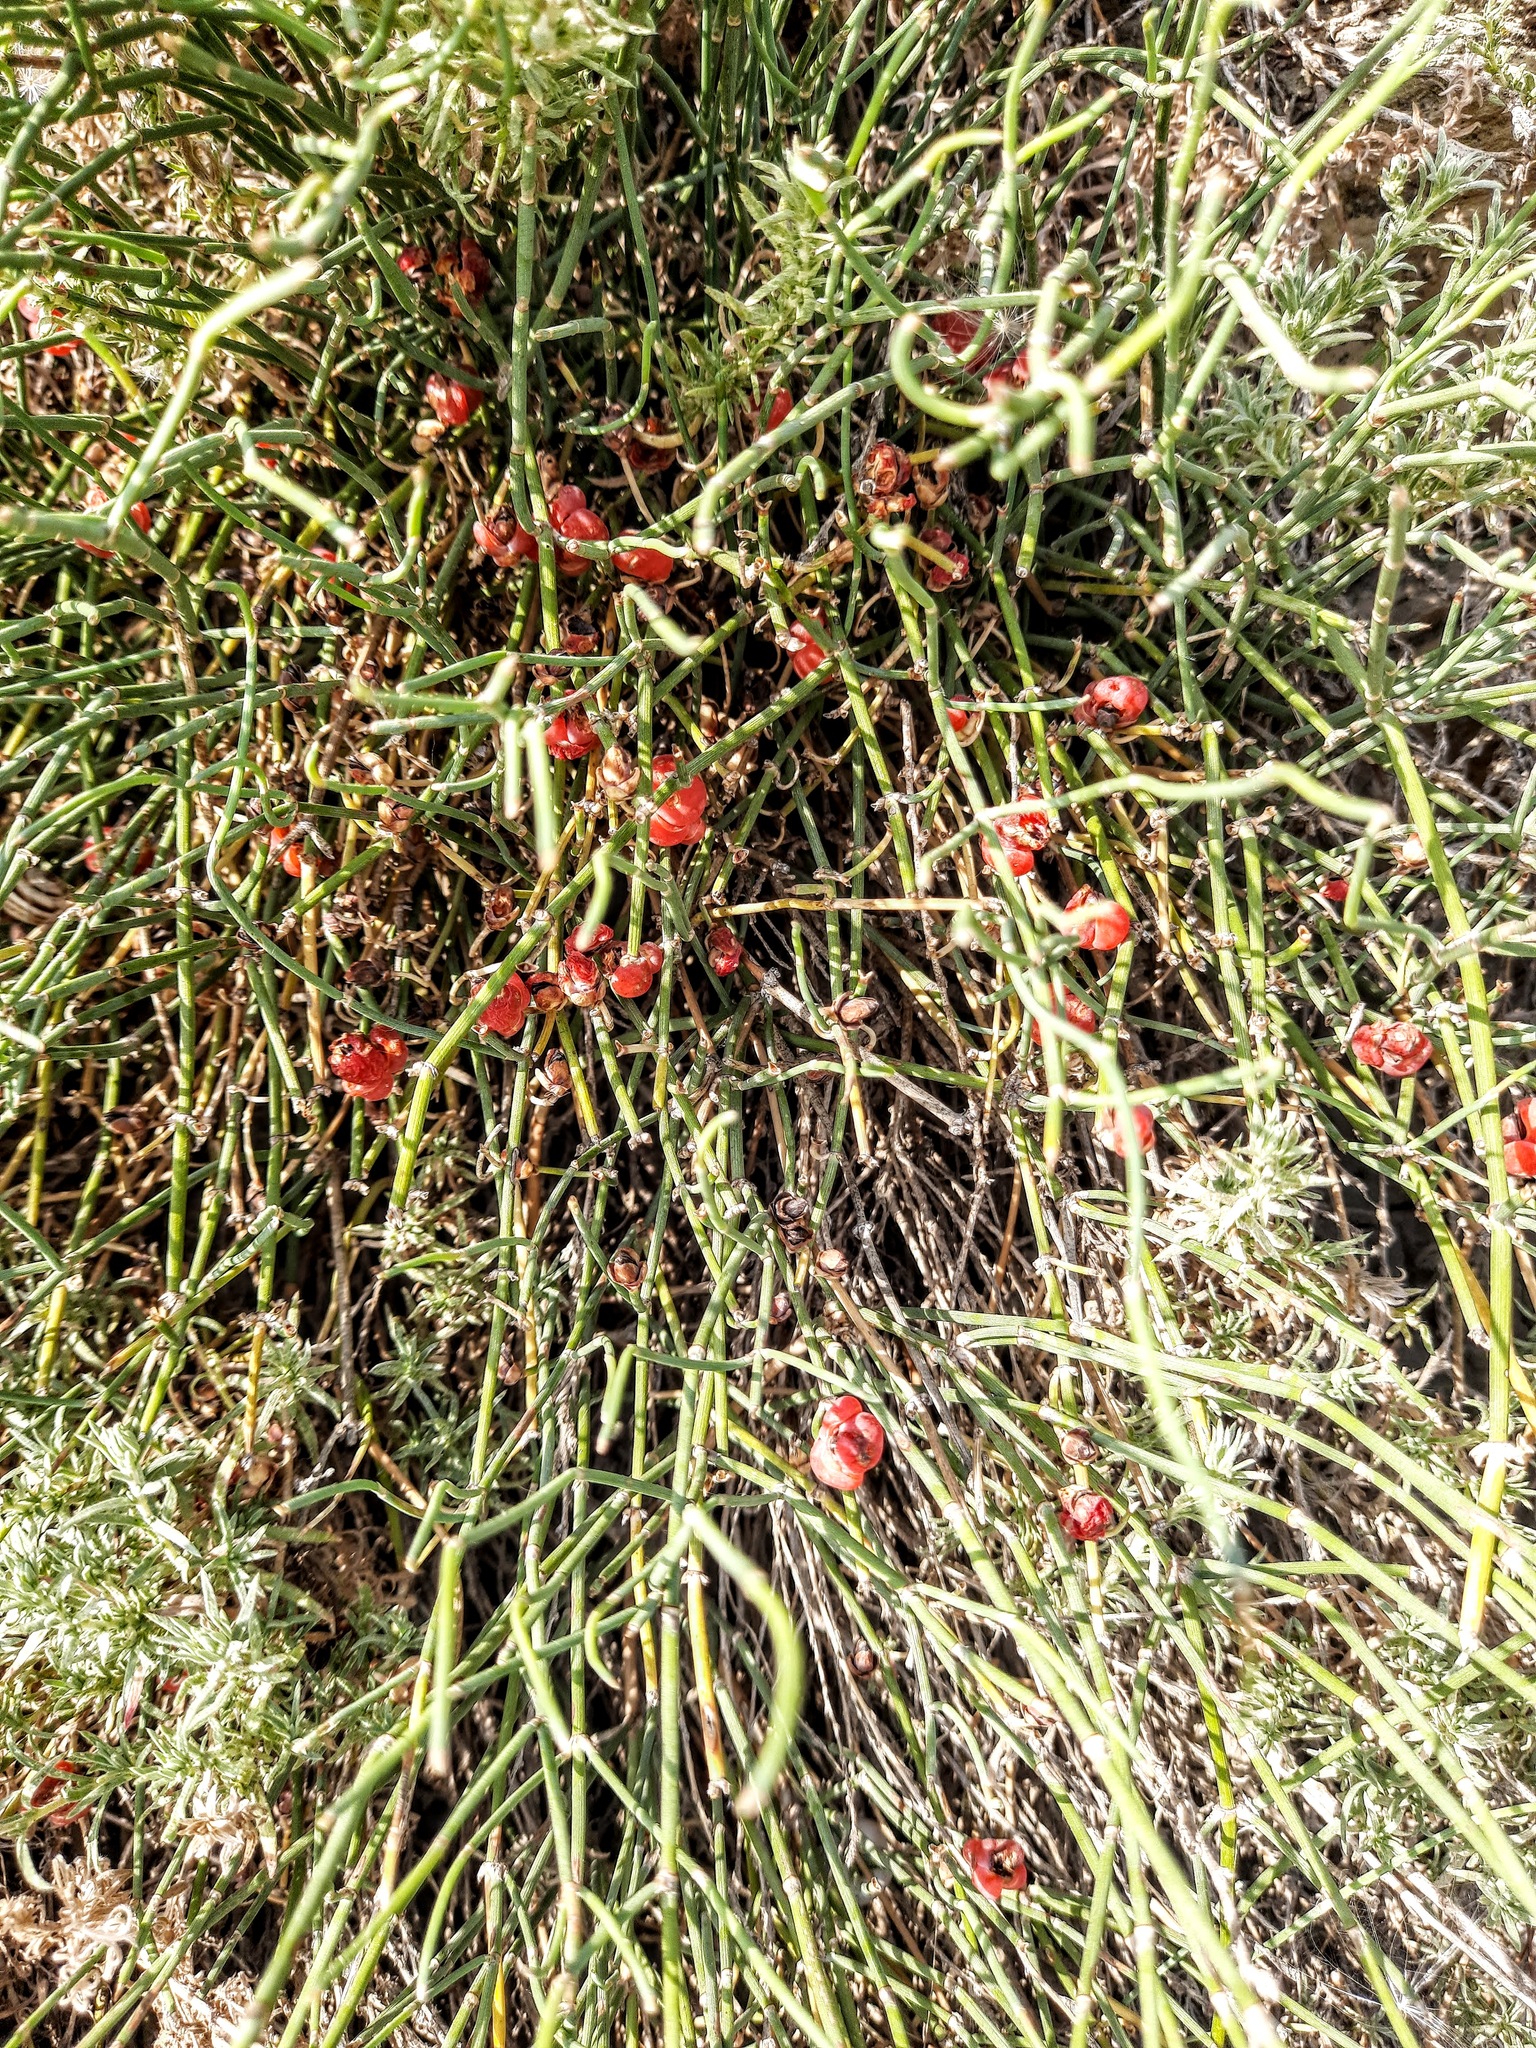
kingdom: Plantae
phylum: Tracheophyta
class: Gnetopsida
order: Ephedrales
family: Ephedraceae
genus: Ephedra
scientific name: Ephedra distachya
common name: Sea grape
